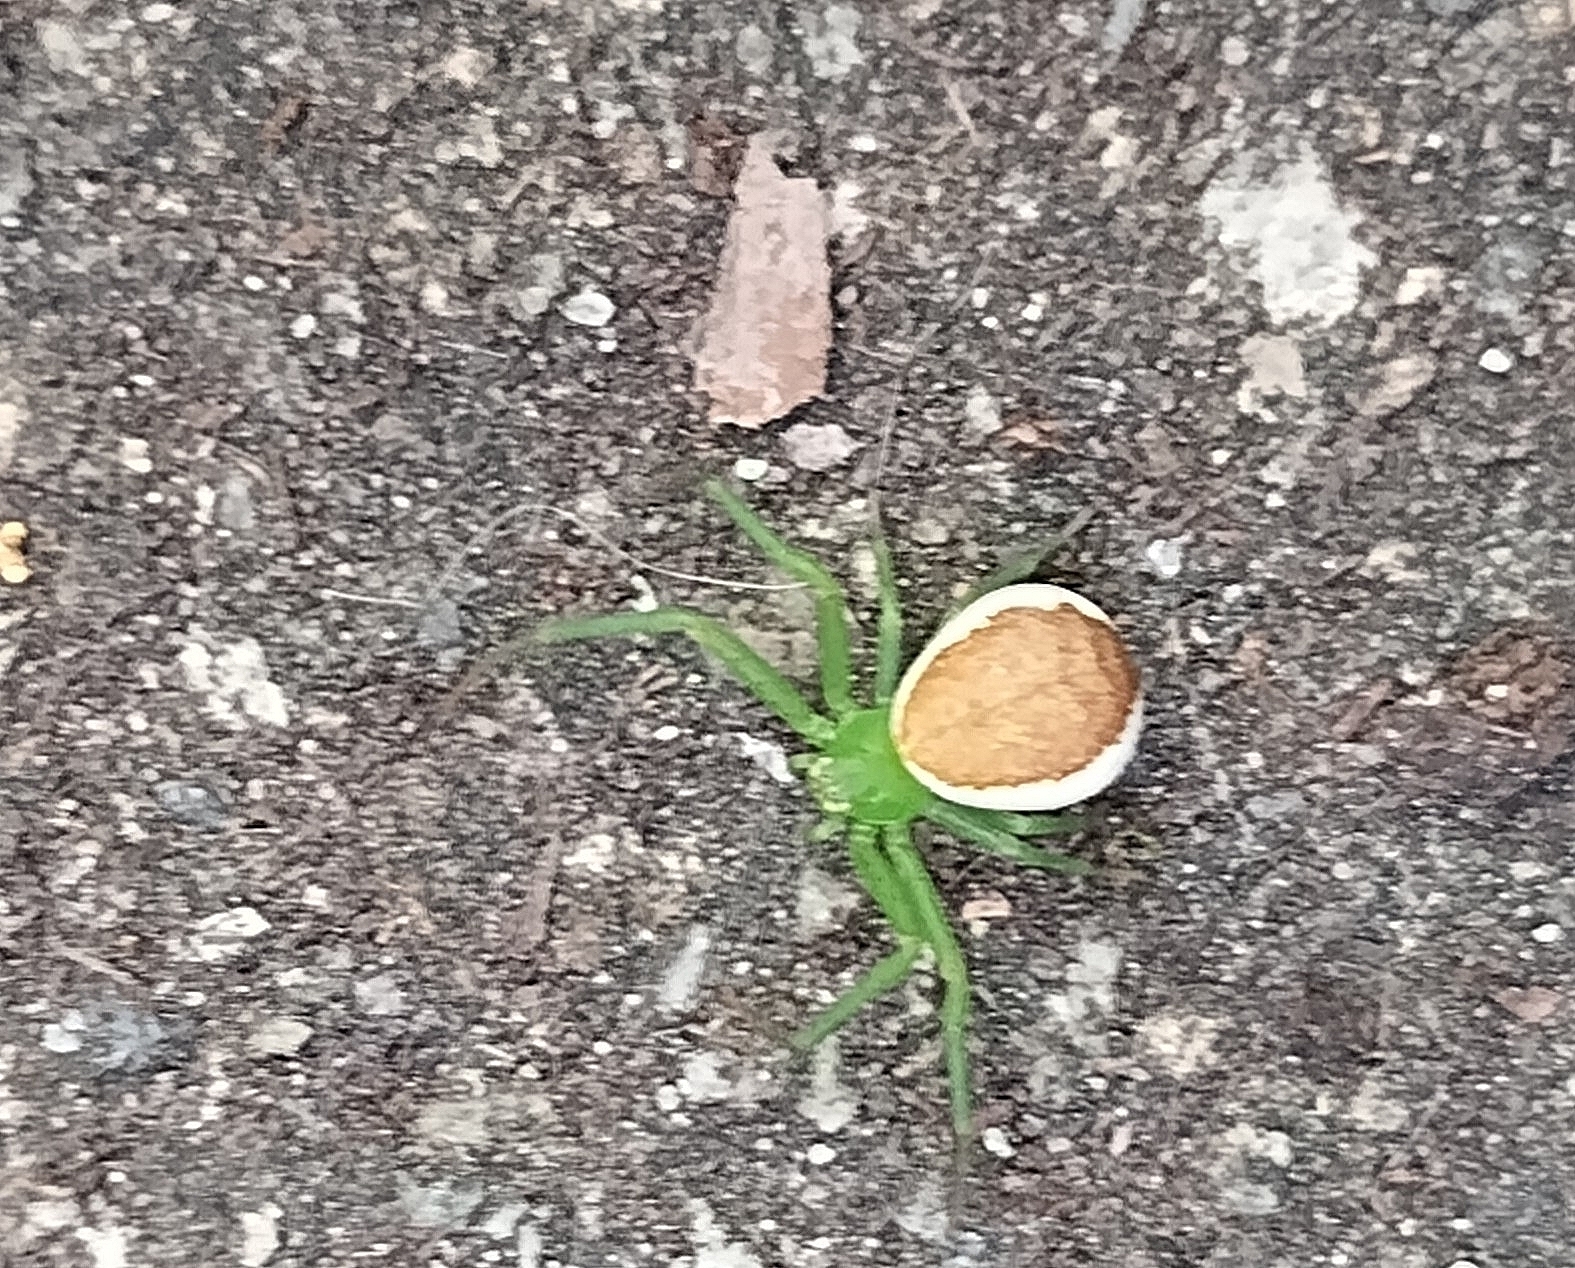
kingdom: Animalia
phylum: Arthropoda
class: Arachnida
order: Araneae
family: Thomisidae
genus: Diaea
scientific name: Diaea dorsata
